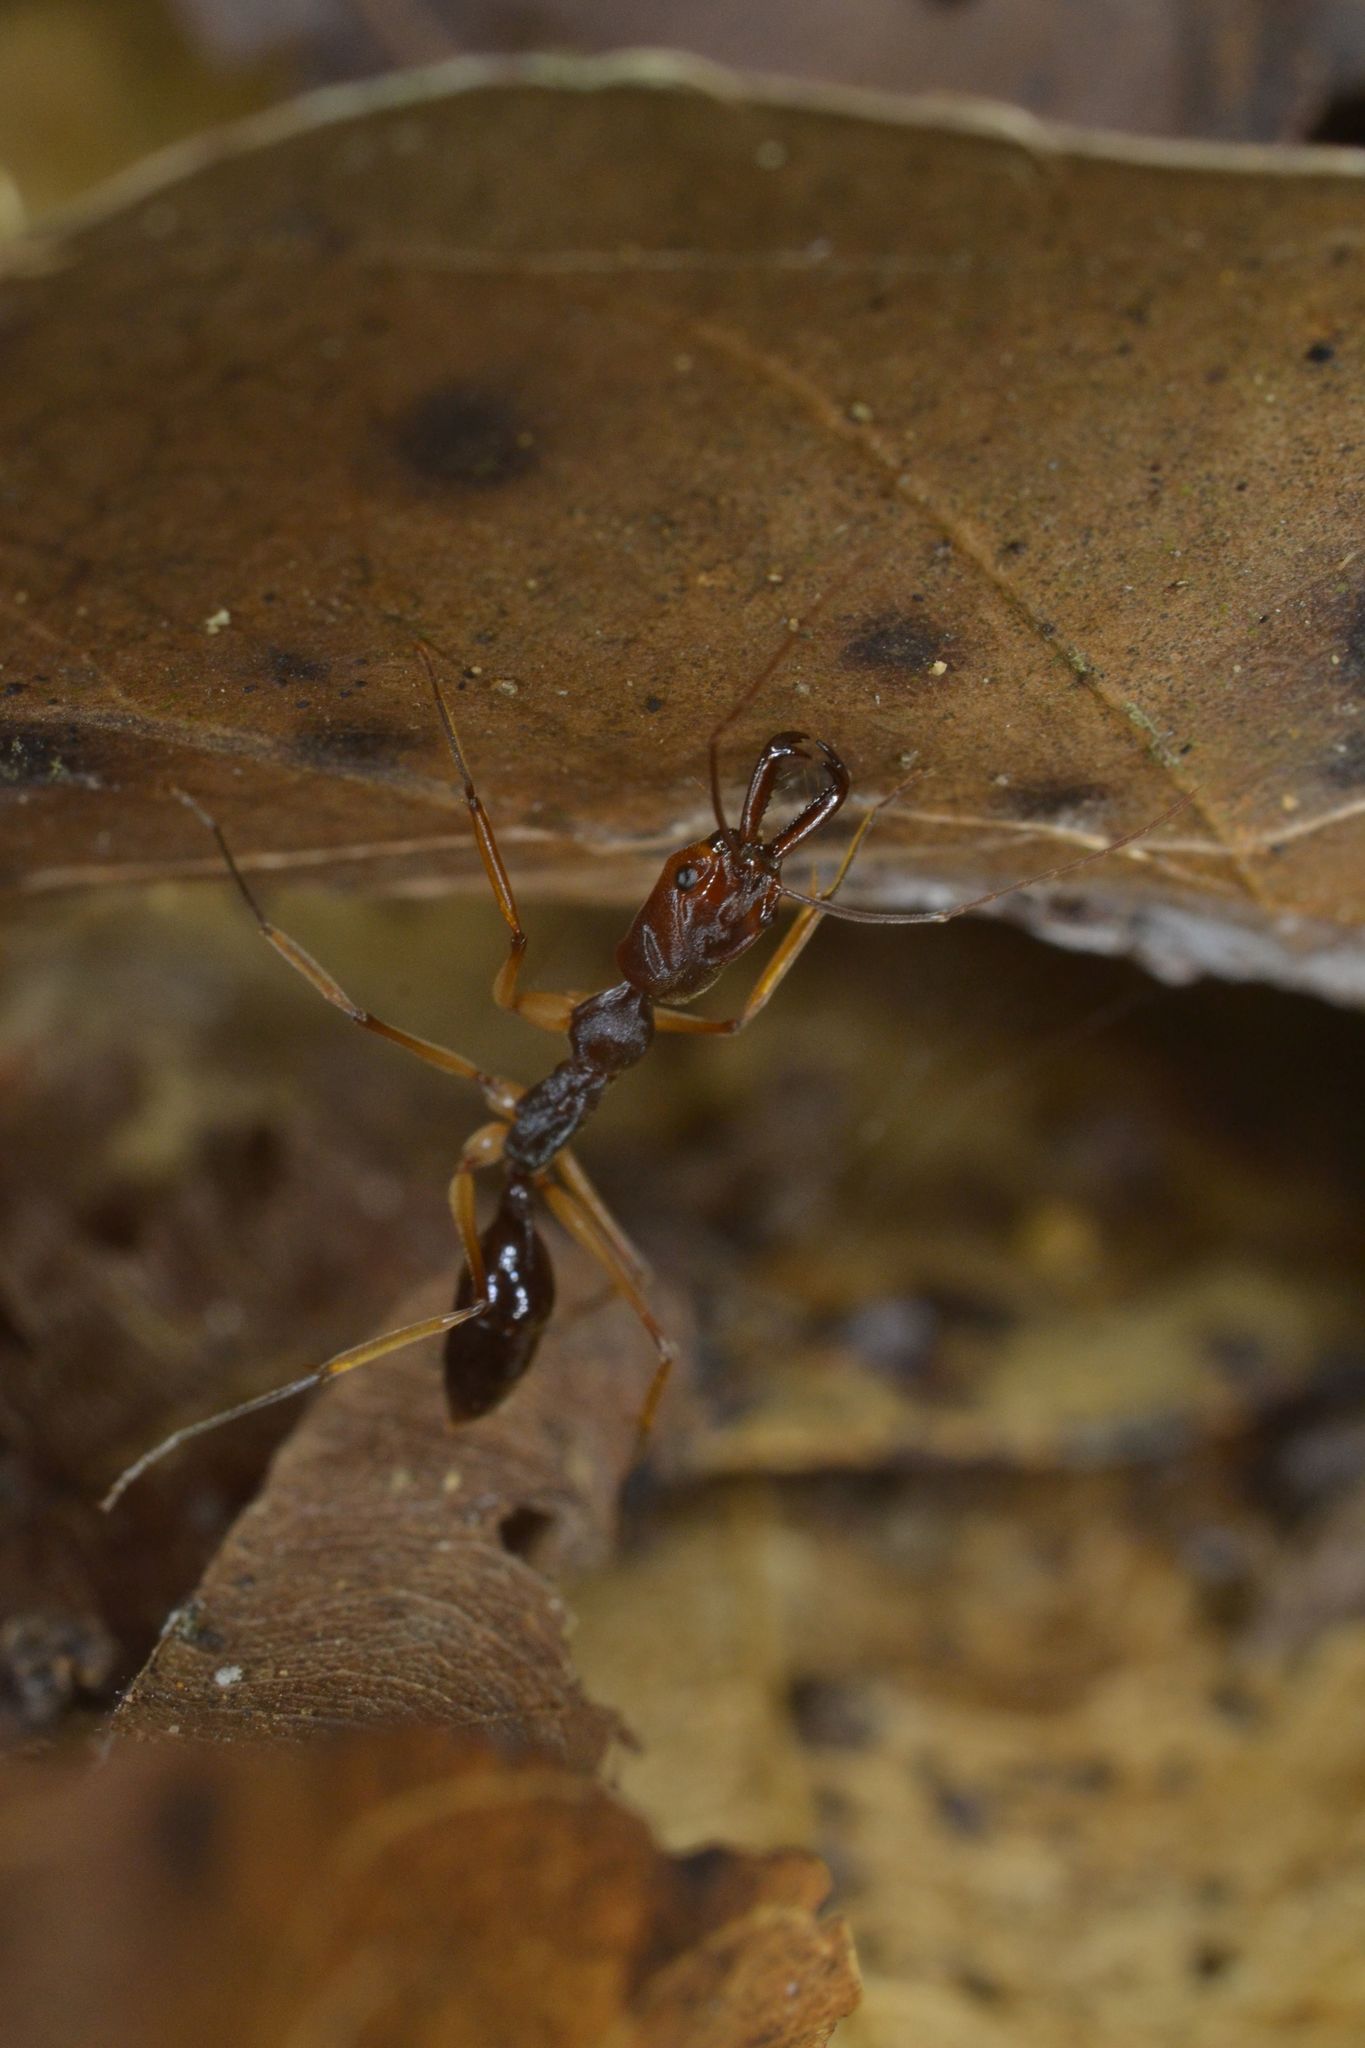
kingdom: Animalia
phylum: Arthropoda
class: Insecta
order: Hymenoptera
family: Formicidae
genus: Odontomachus
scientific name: Odontomachus infandus
